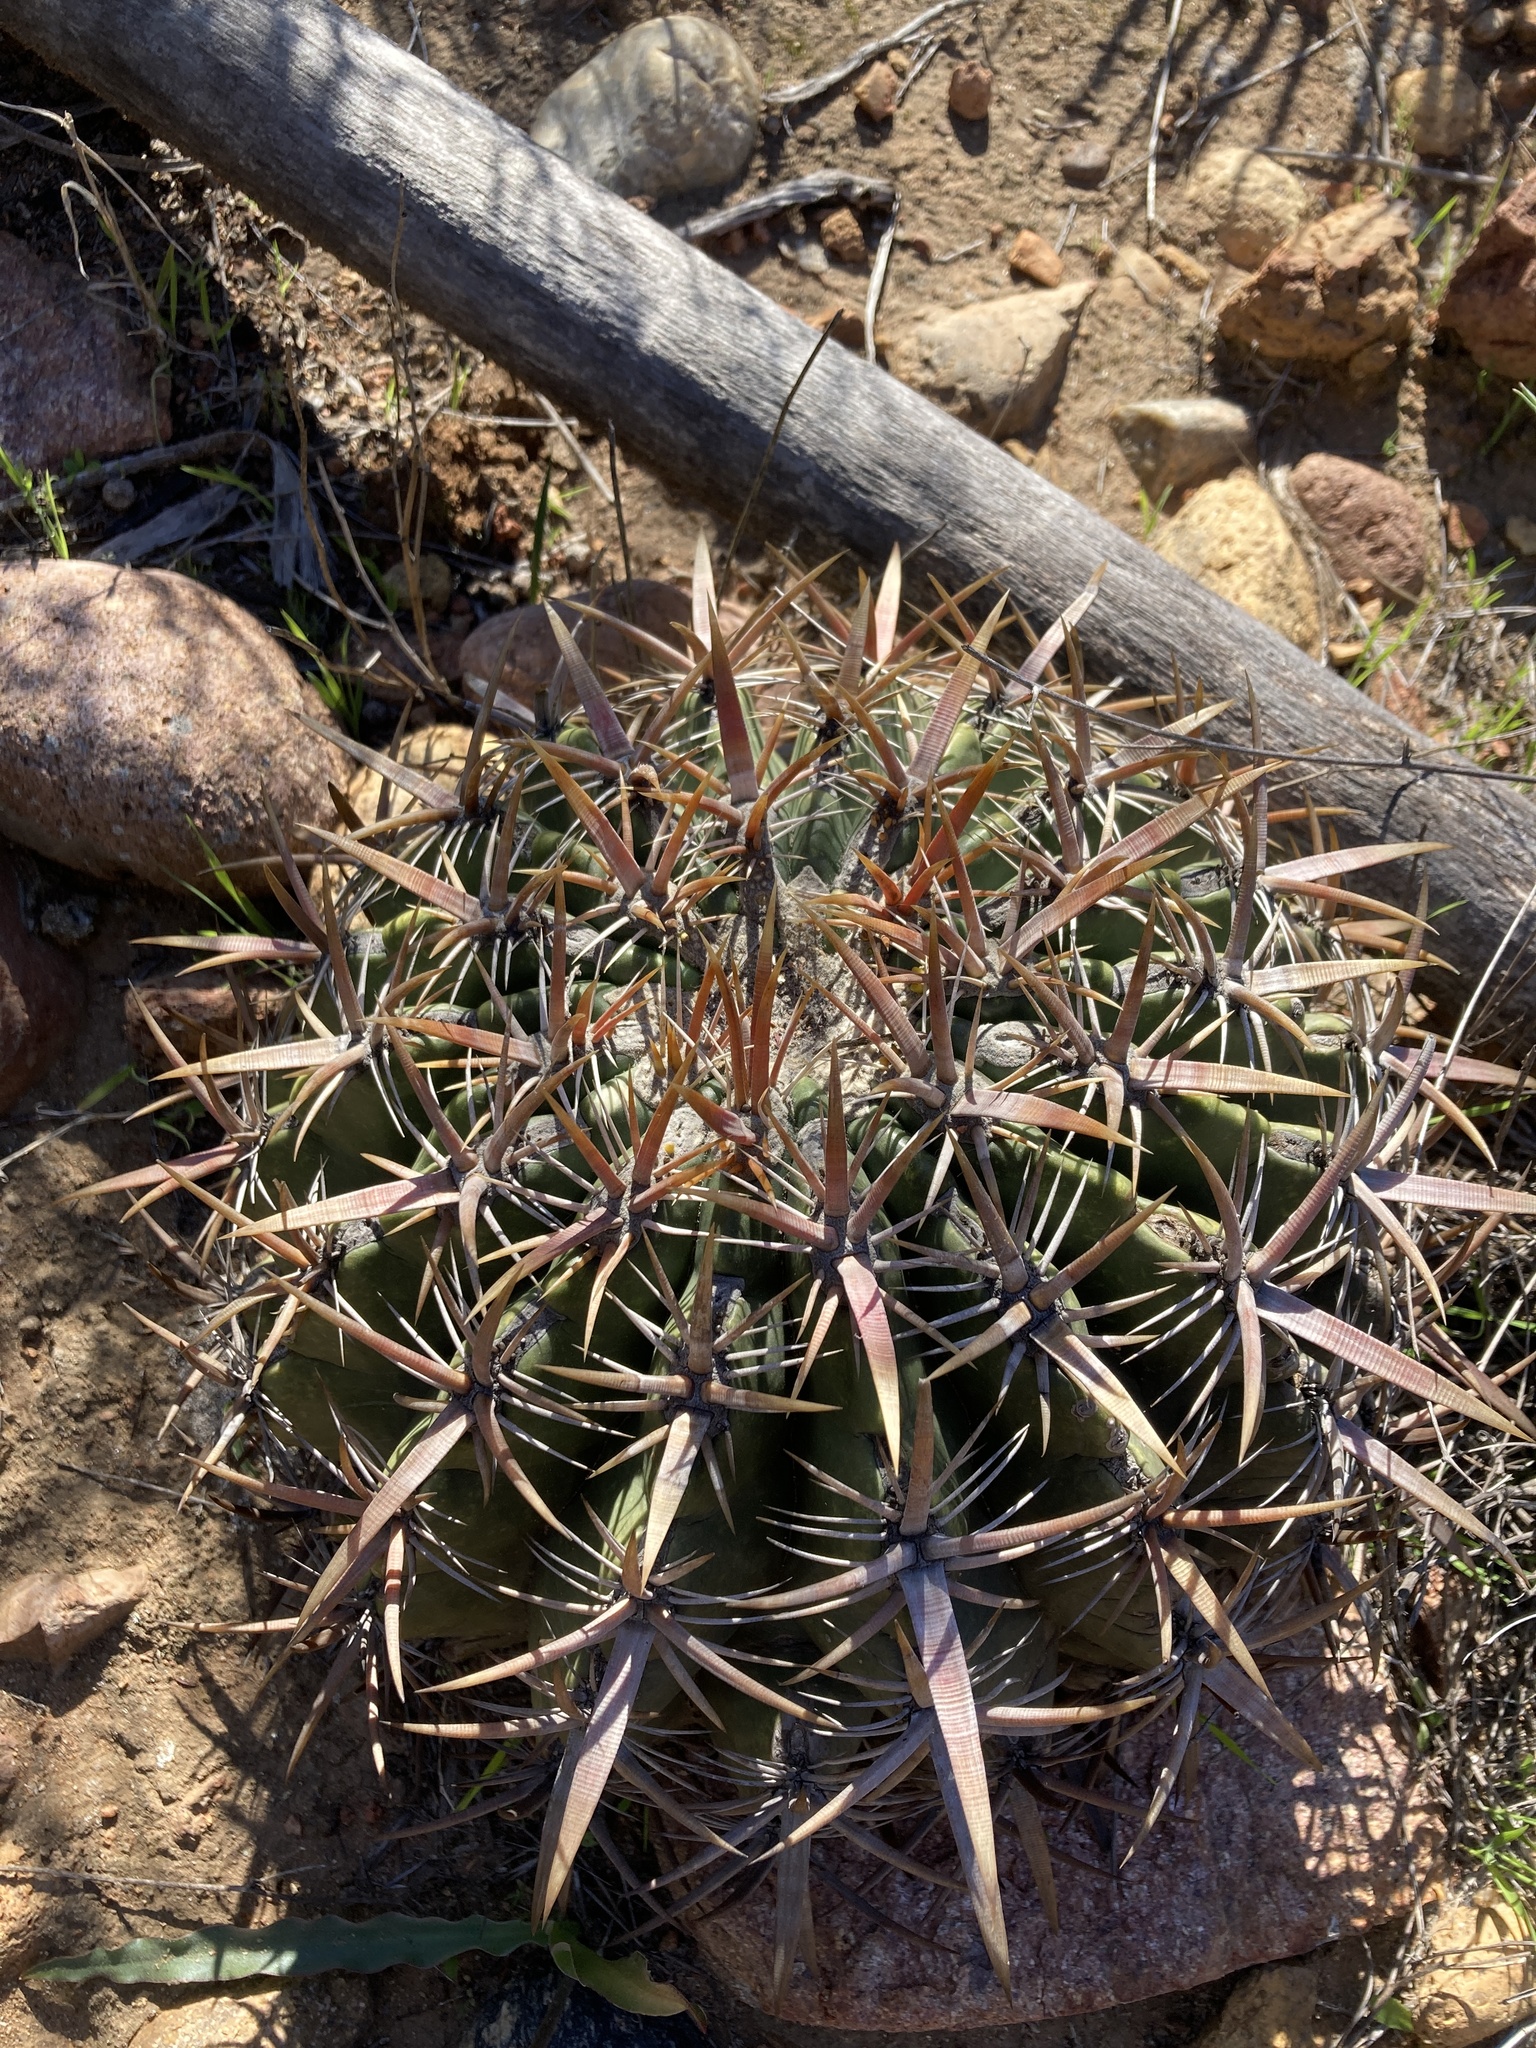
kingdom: Plantae
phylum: Tracheophyta
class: Magnoliopsida
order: Caryophyllales
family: Cactaceae
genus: Ferocactus
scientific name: Ferocactus viridescens
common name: San diego barrel cactus
